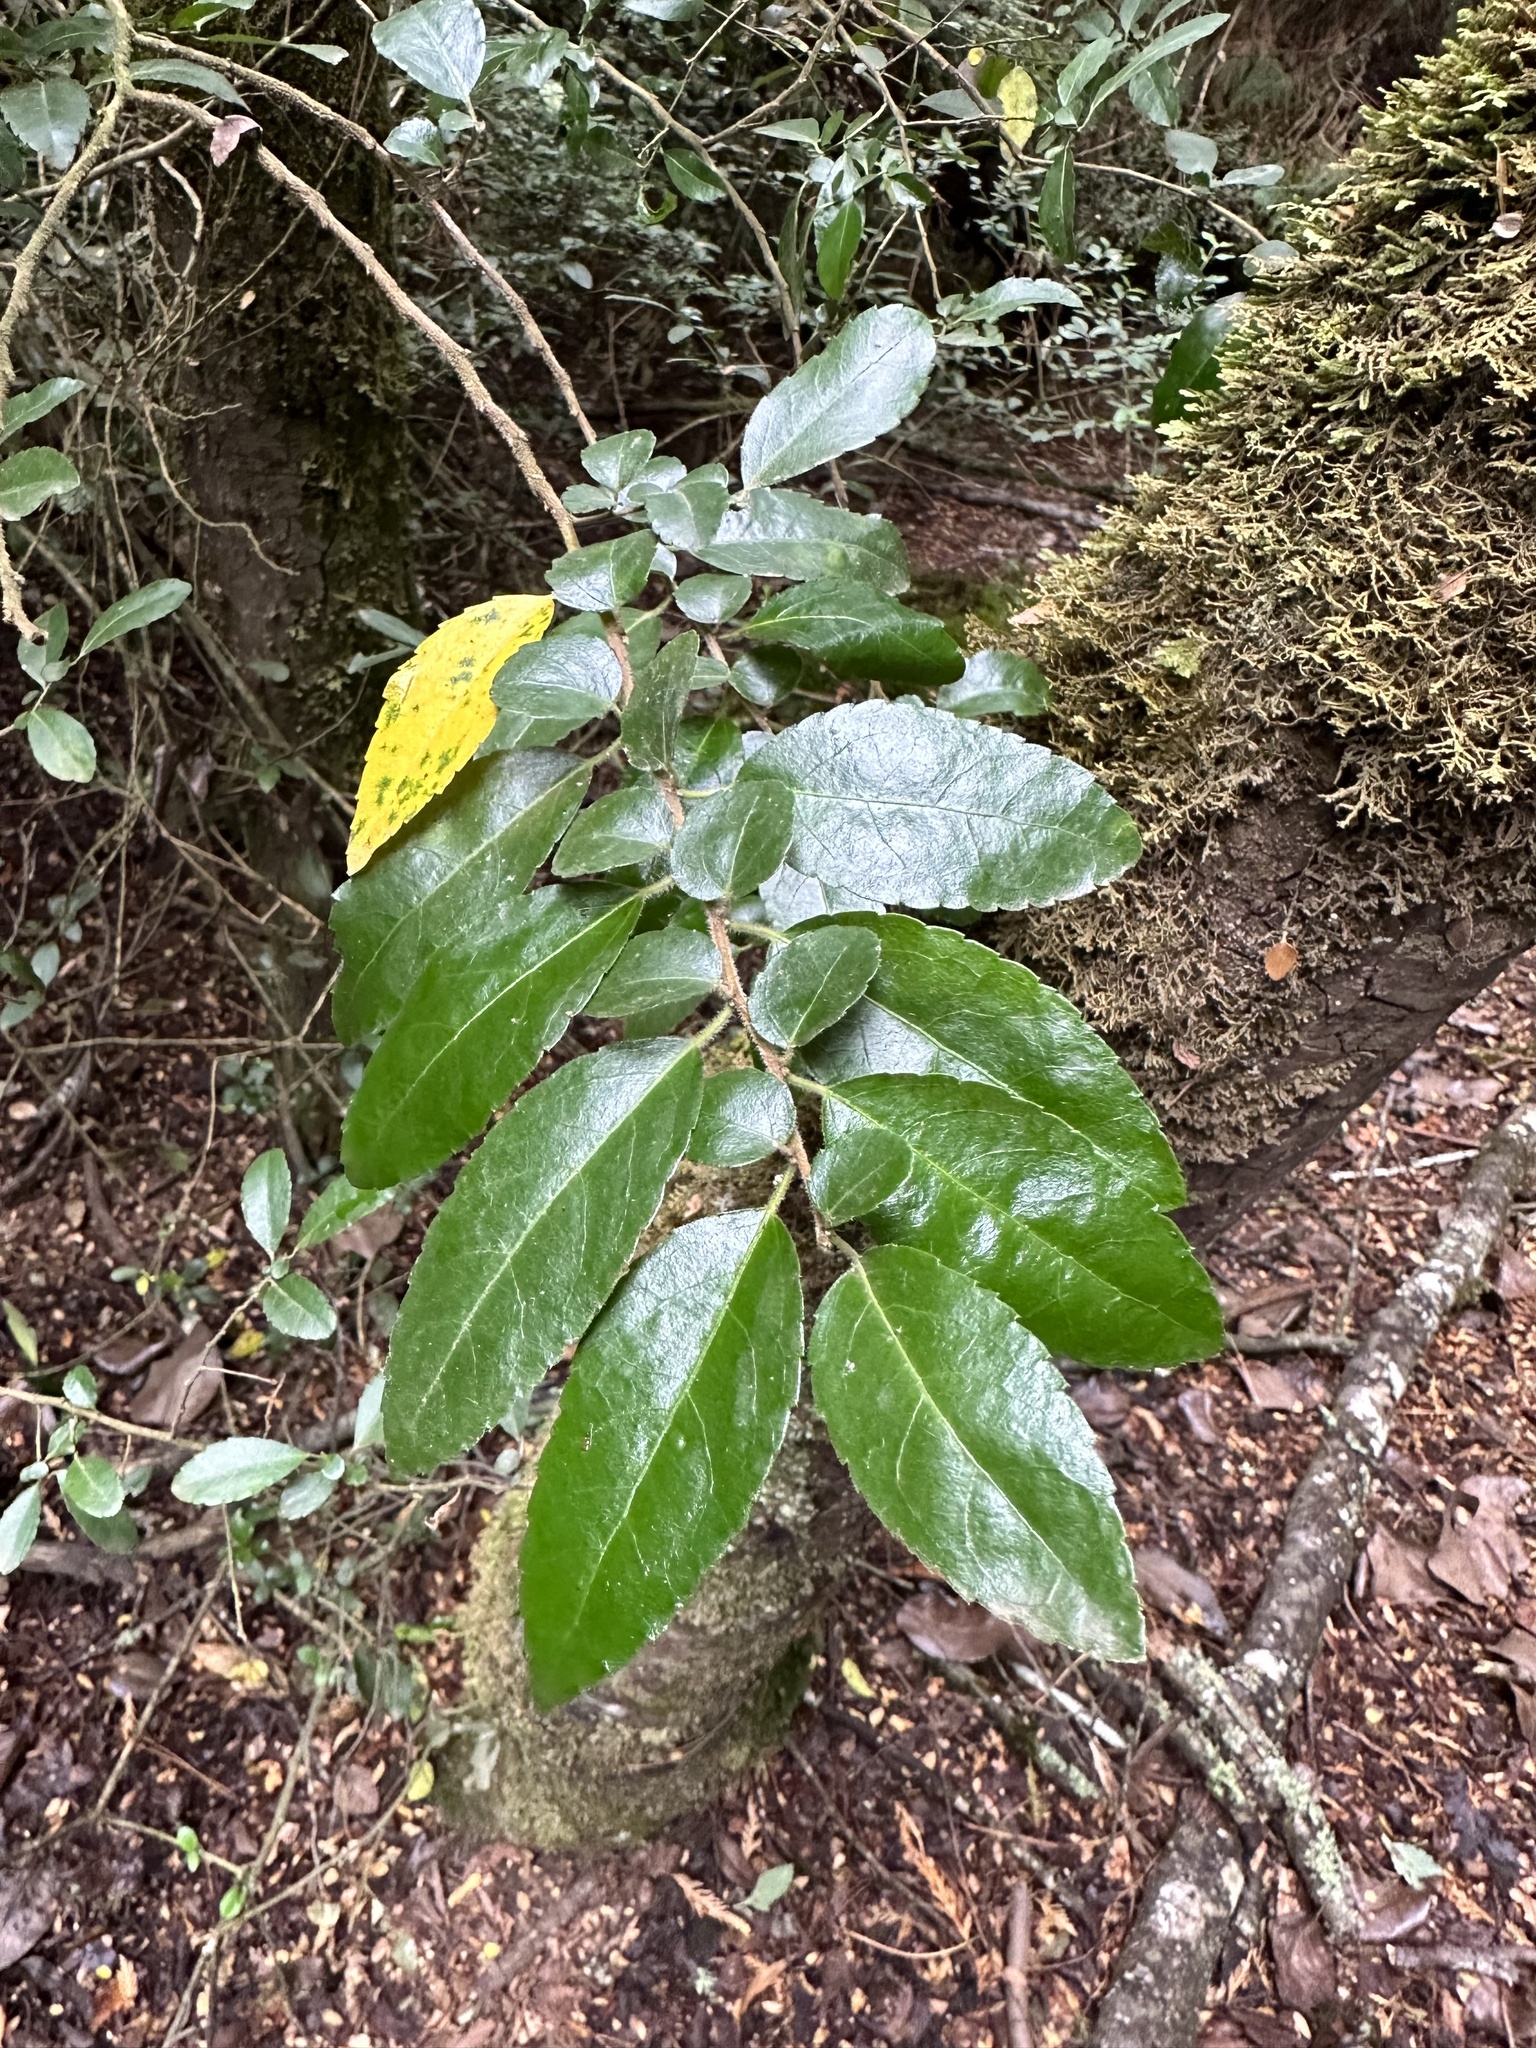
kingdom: Plantae
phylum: Tracheophyta
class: Magnoliopsida
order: Malpighiales
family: Salicaceae
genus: Azara
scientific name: Azara serrata
